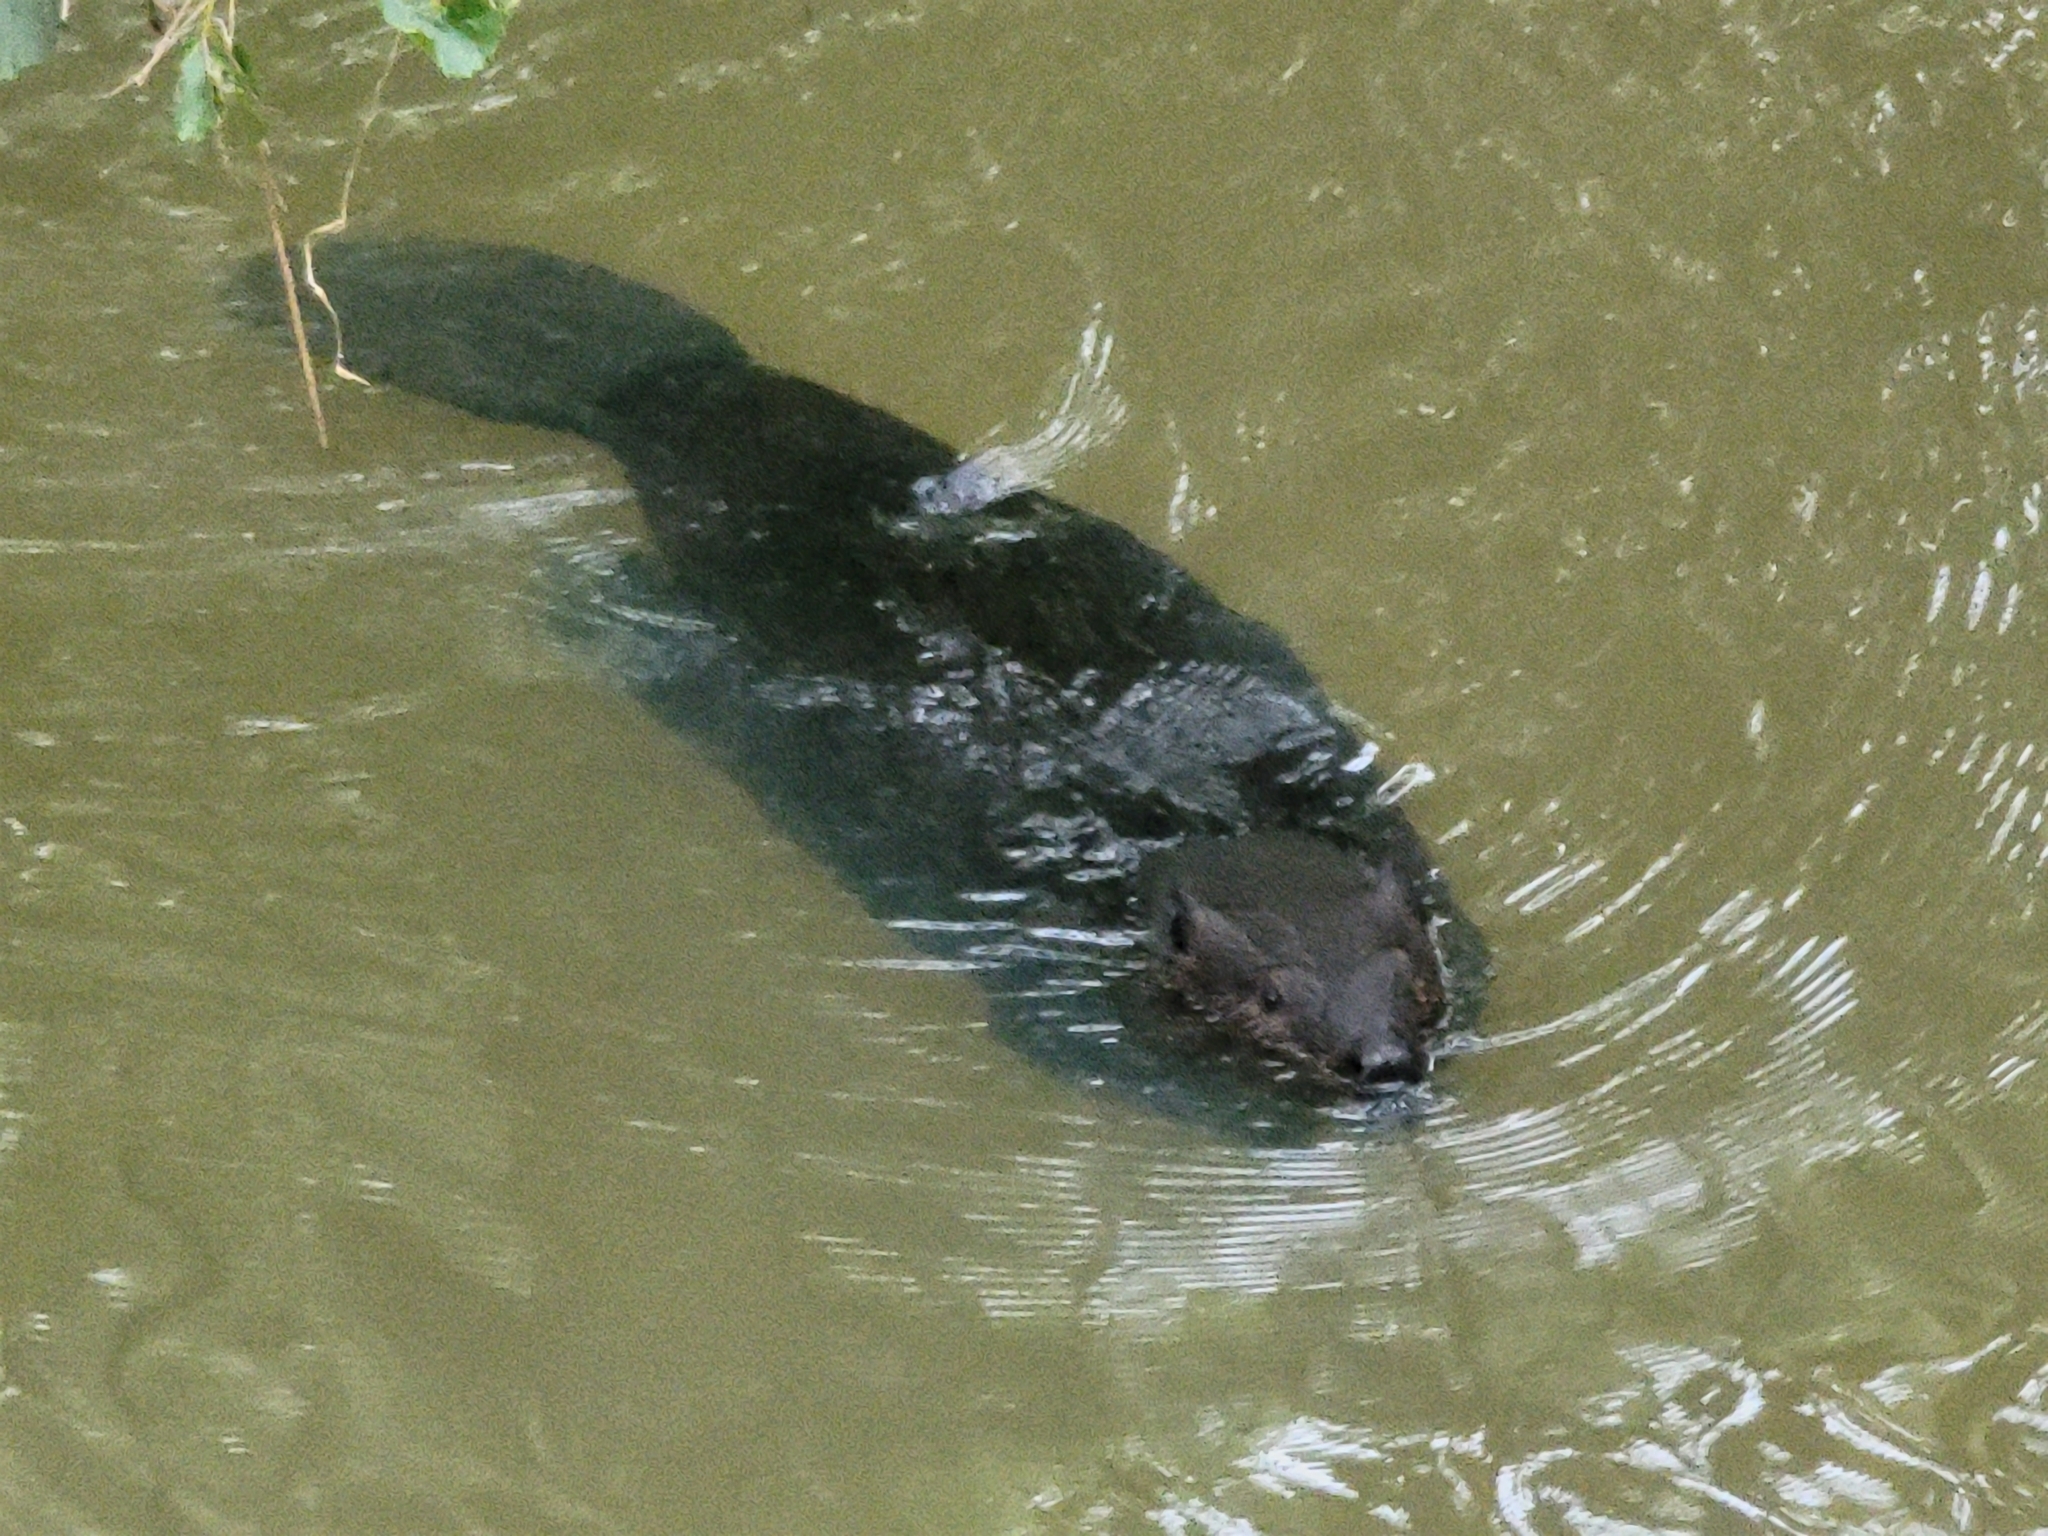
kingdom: Animalia
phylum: Chordata
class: Mammalia
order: Rodentia
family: Castoridae
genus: Castor
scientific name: Castor canadensis
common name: American beaver
